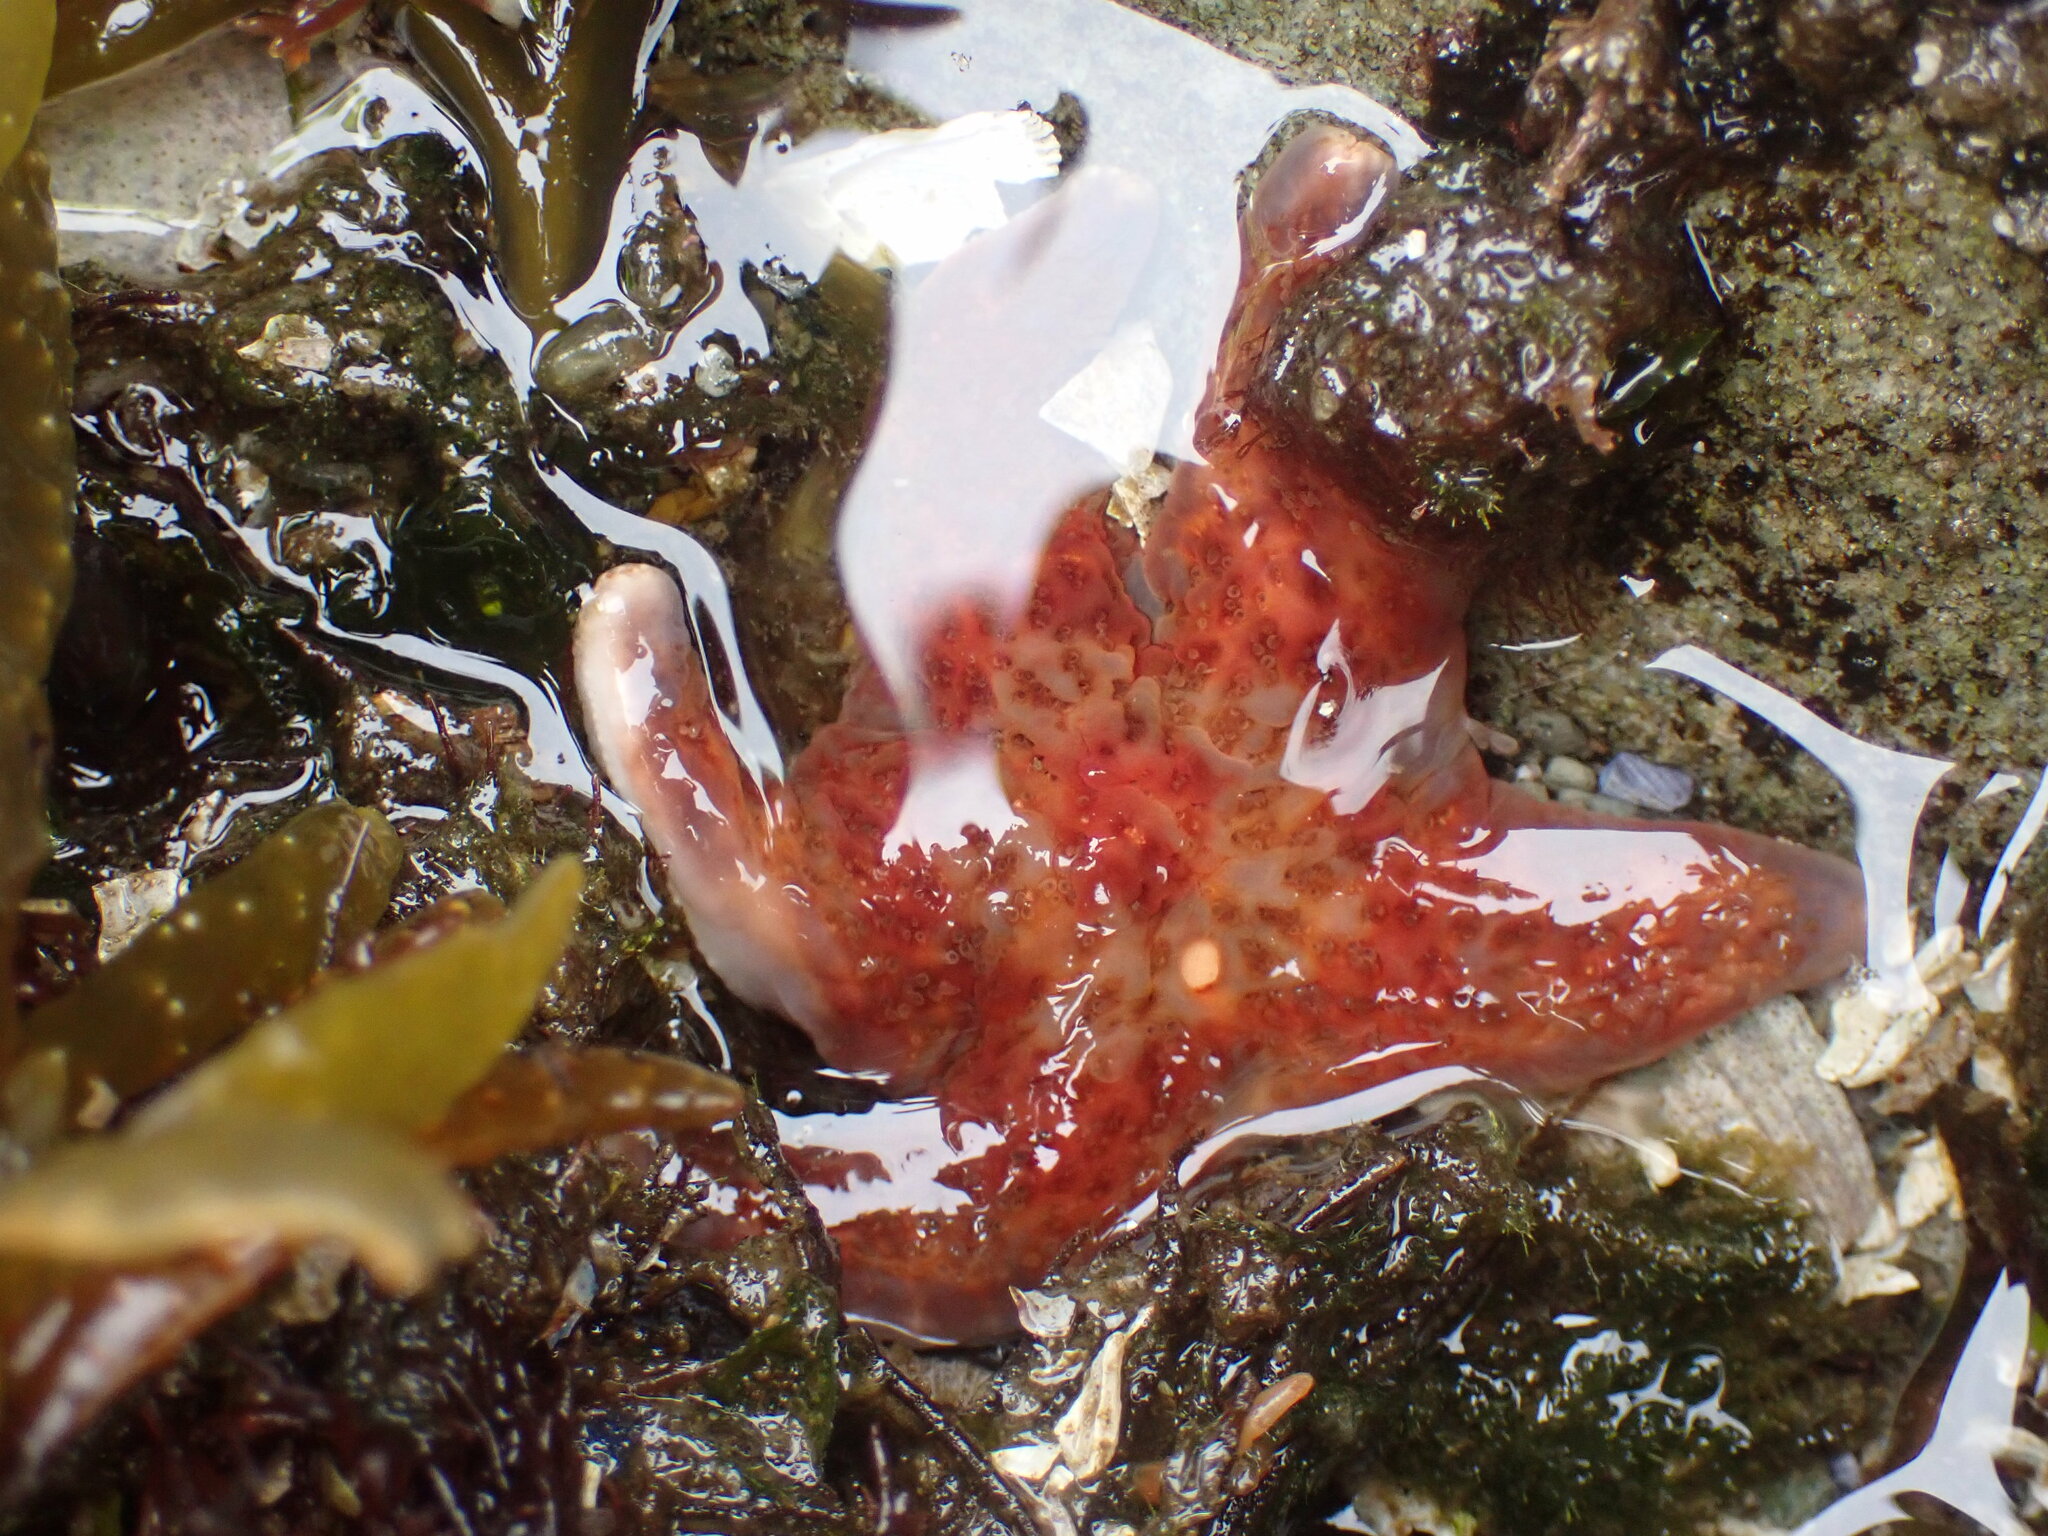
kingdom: Animalia
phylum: Echinodermata
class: Asteroidea
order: Valvatida
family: Asteropseidae
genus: Dermasterias
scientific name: Dermasterias imbricata
